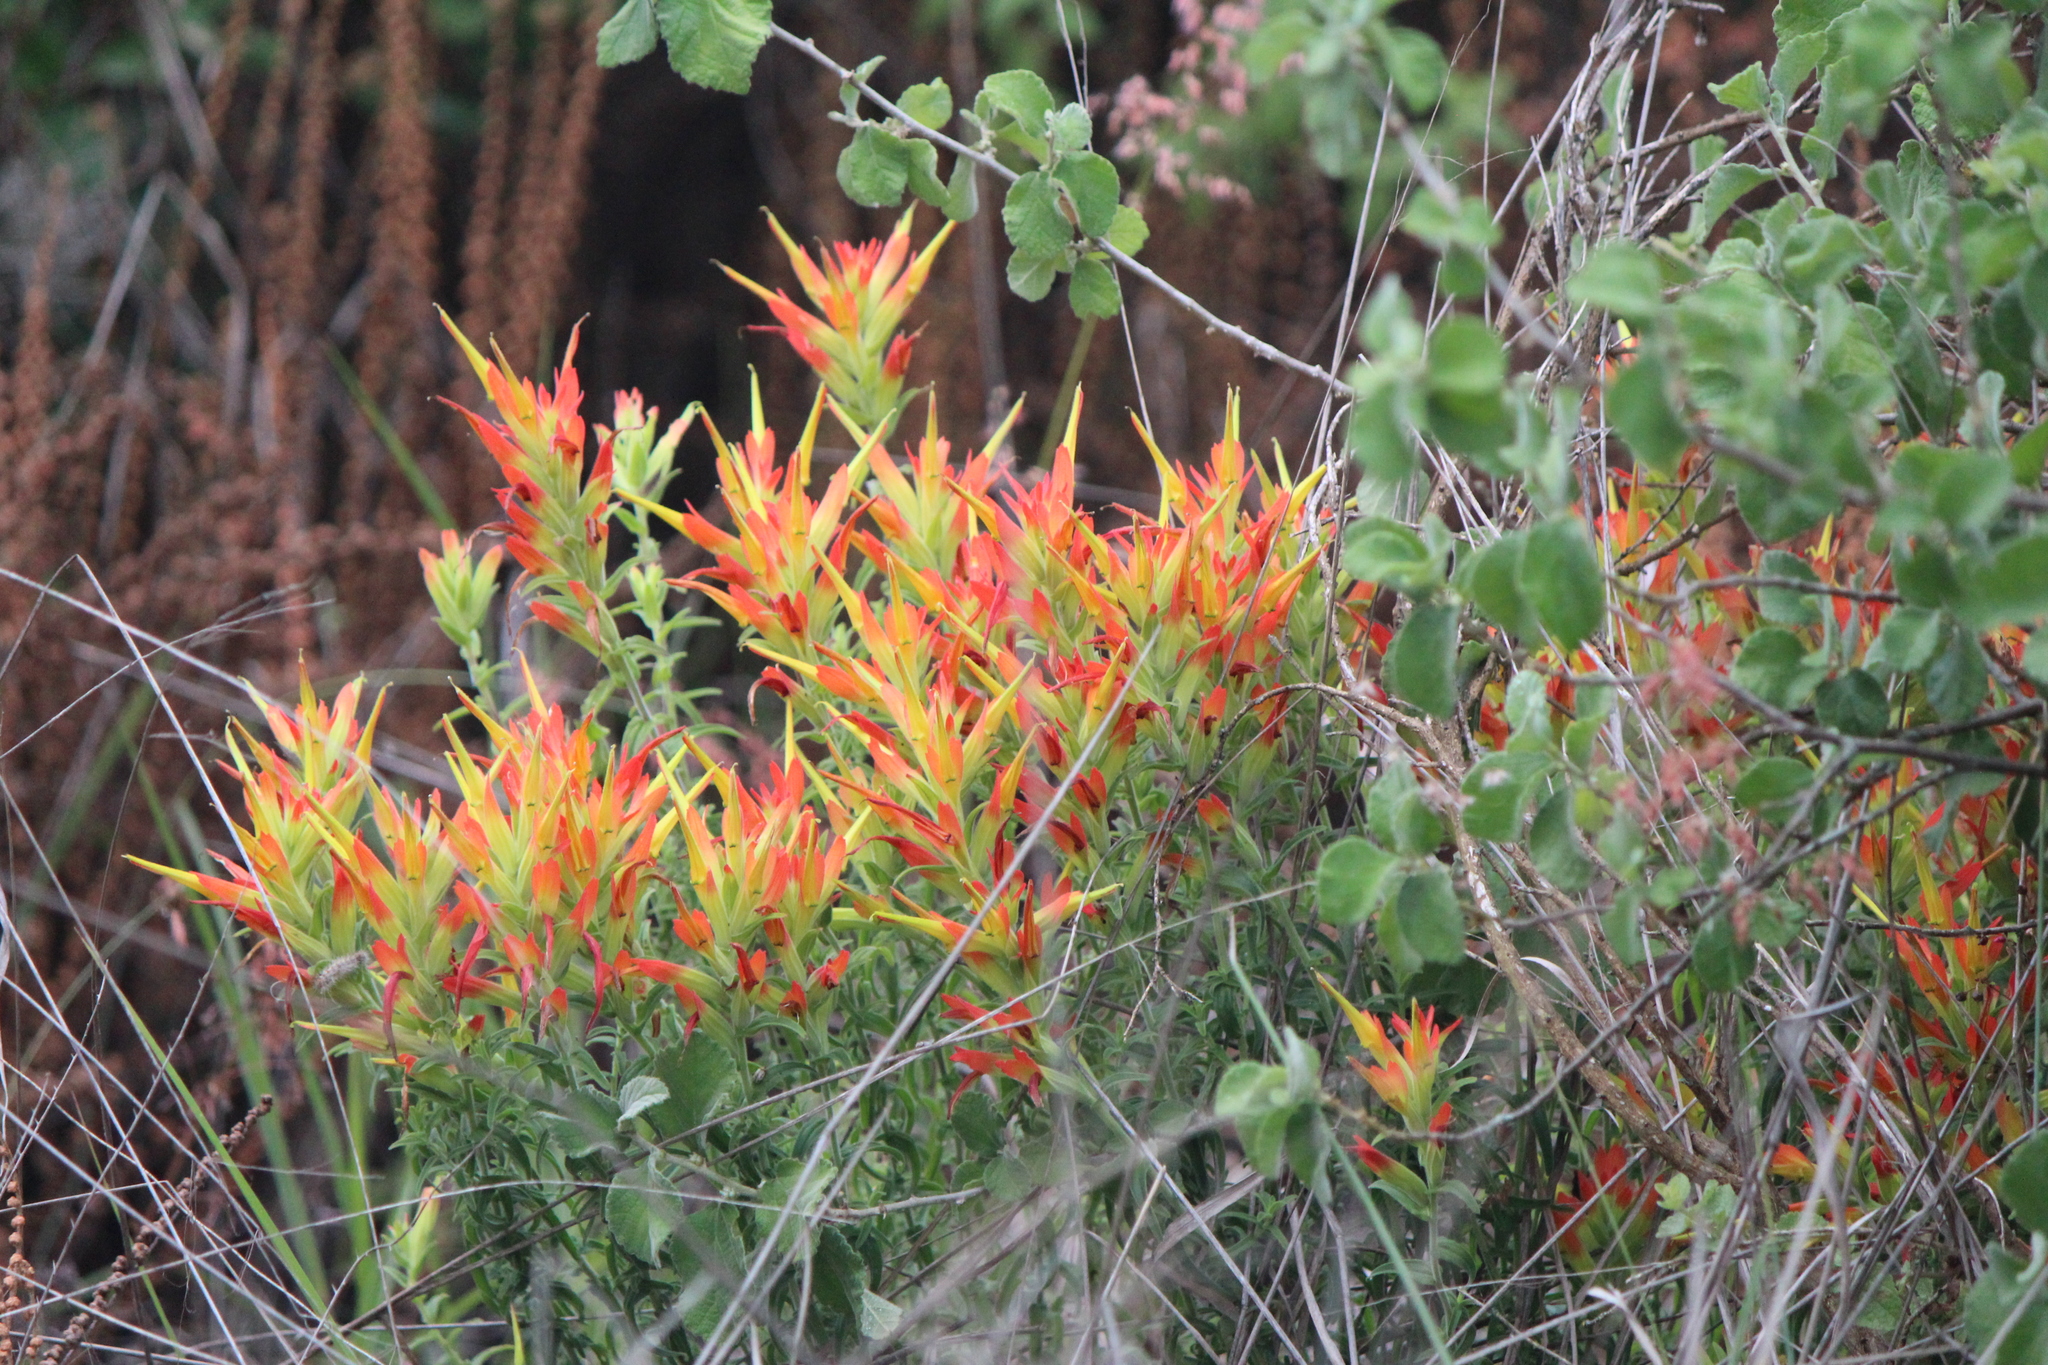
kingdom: Plantae
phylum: Tracheophyta
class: Magnoliopsida
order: Lamiales
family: Orobanchaceae
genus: Castilleja
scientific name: Castilleja tenuiflora
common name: Santa catalina indian paintbrush
